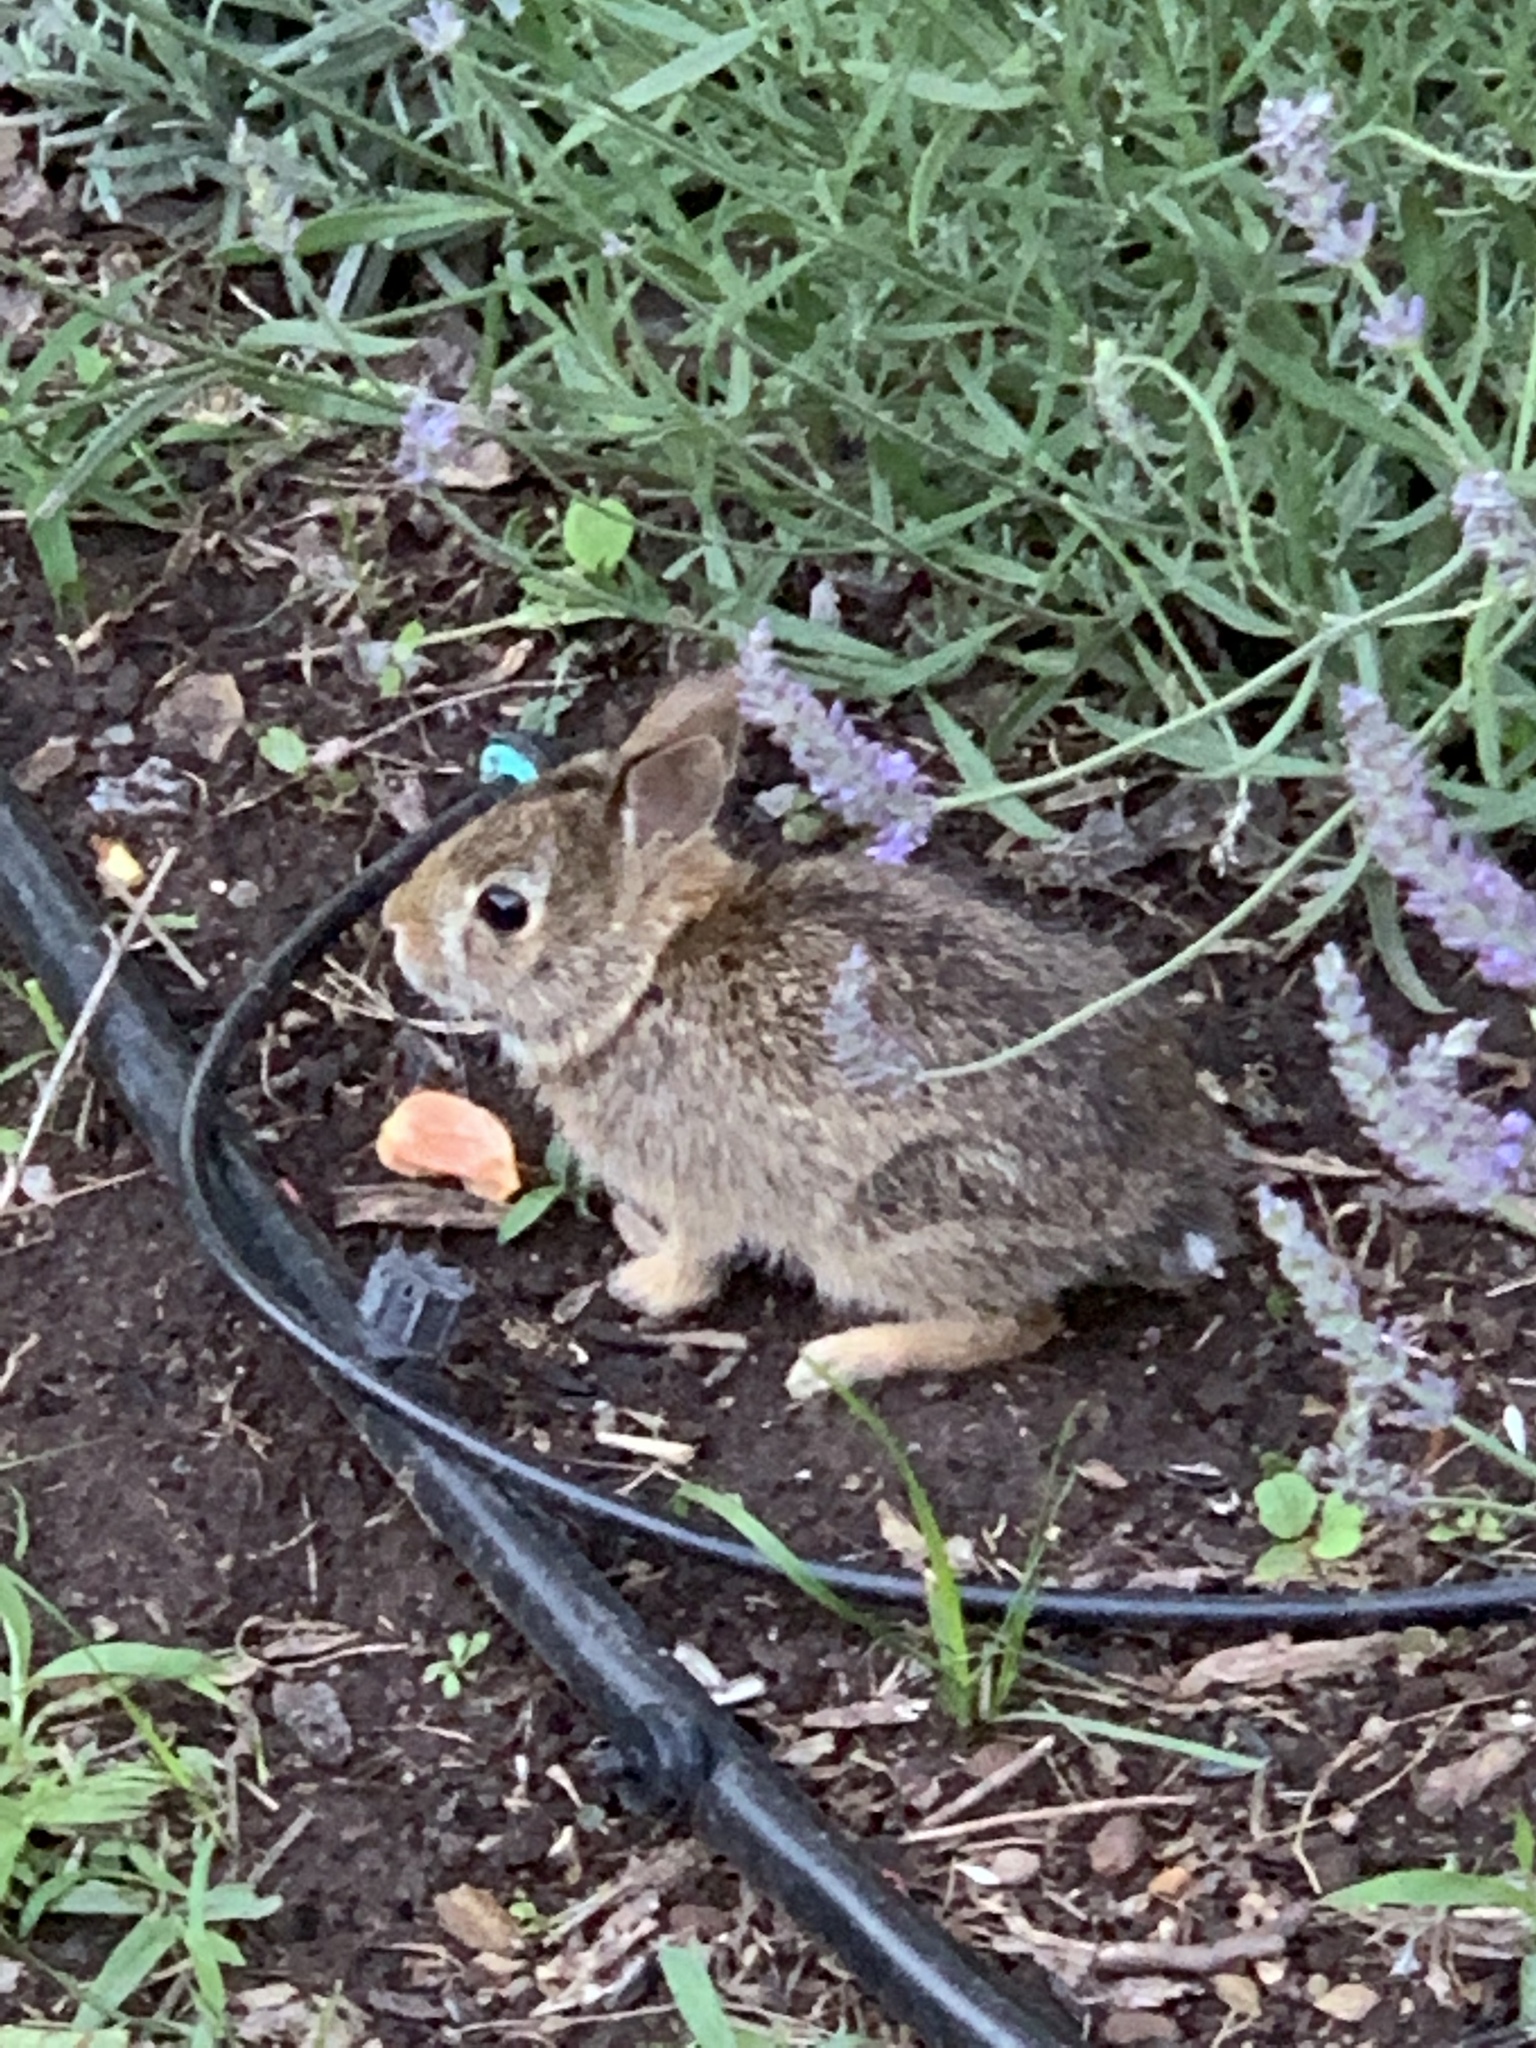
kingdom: Animalia
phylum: Chordata
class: Mammalia
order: Lagomorpha
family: Leporidae
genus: Sylvilagus
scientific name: Sylvilagus floridanus
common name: Eastern cottontail
